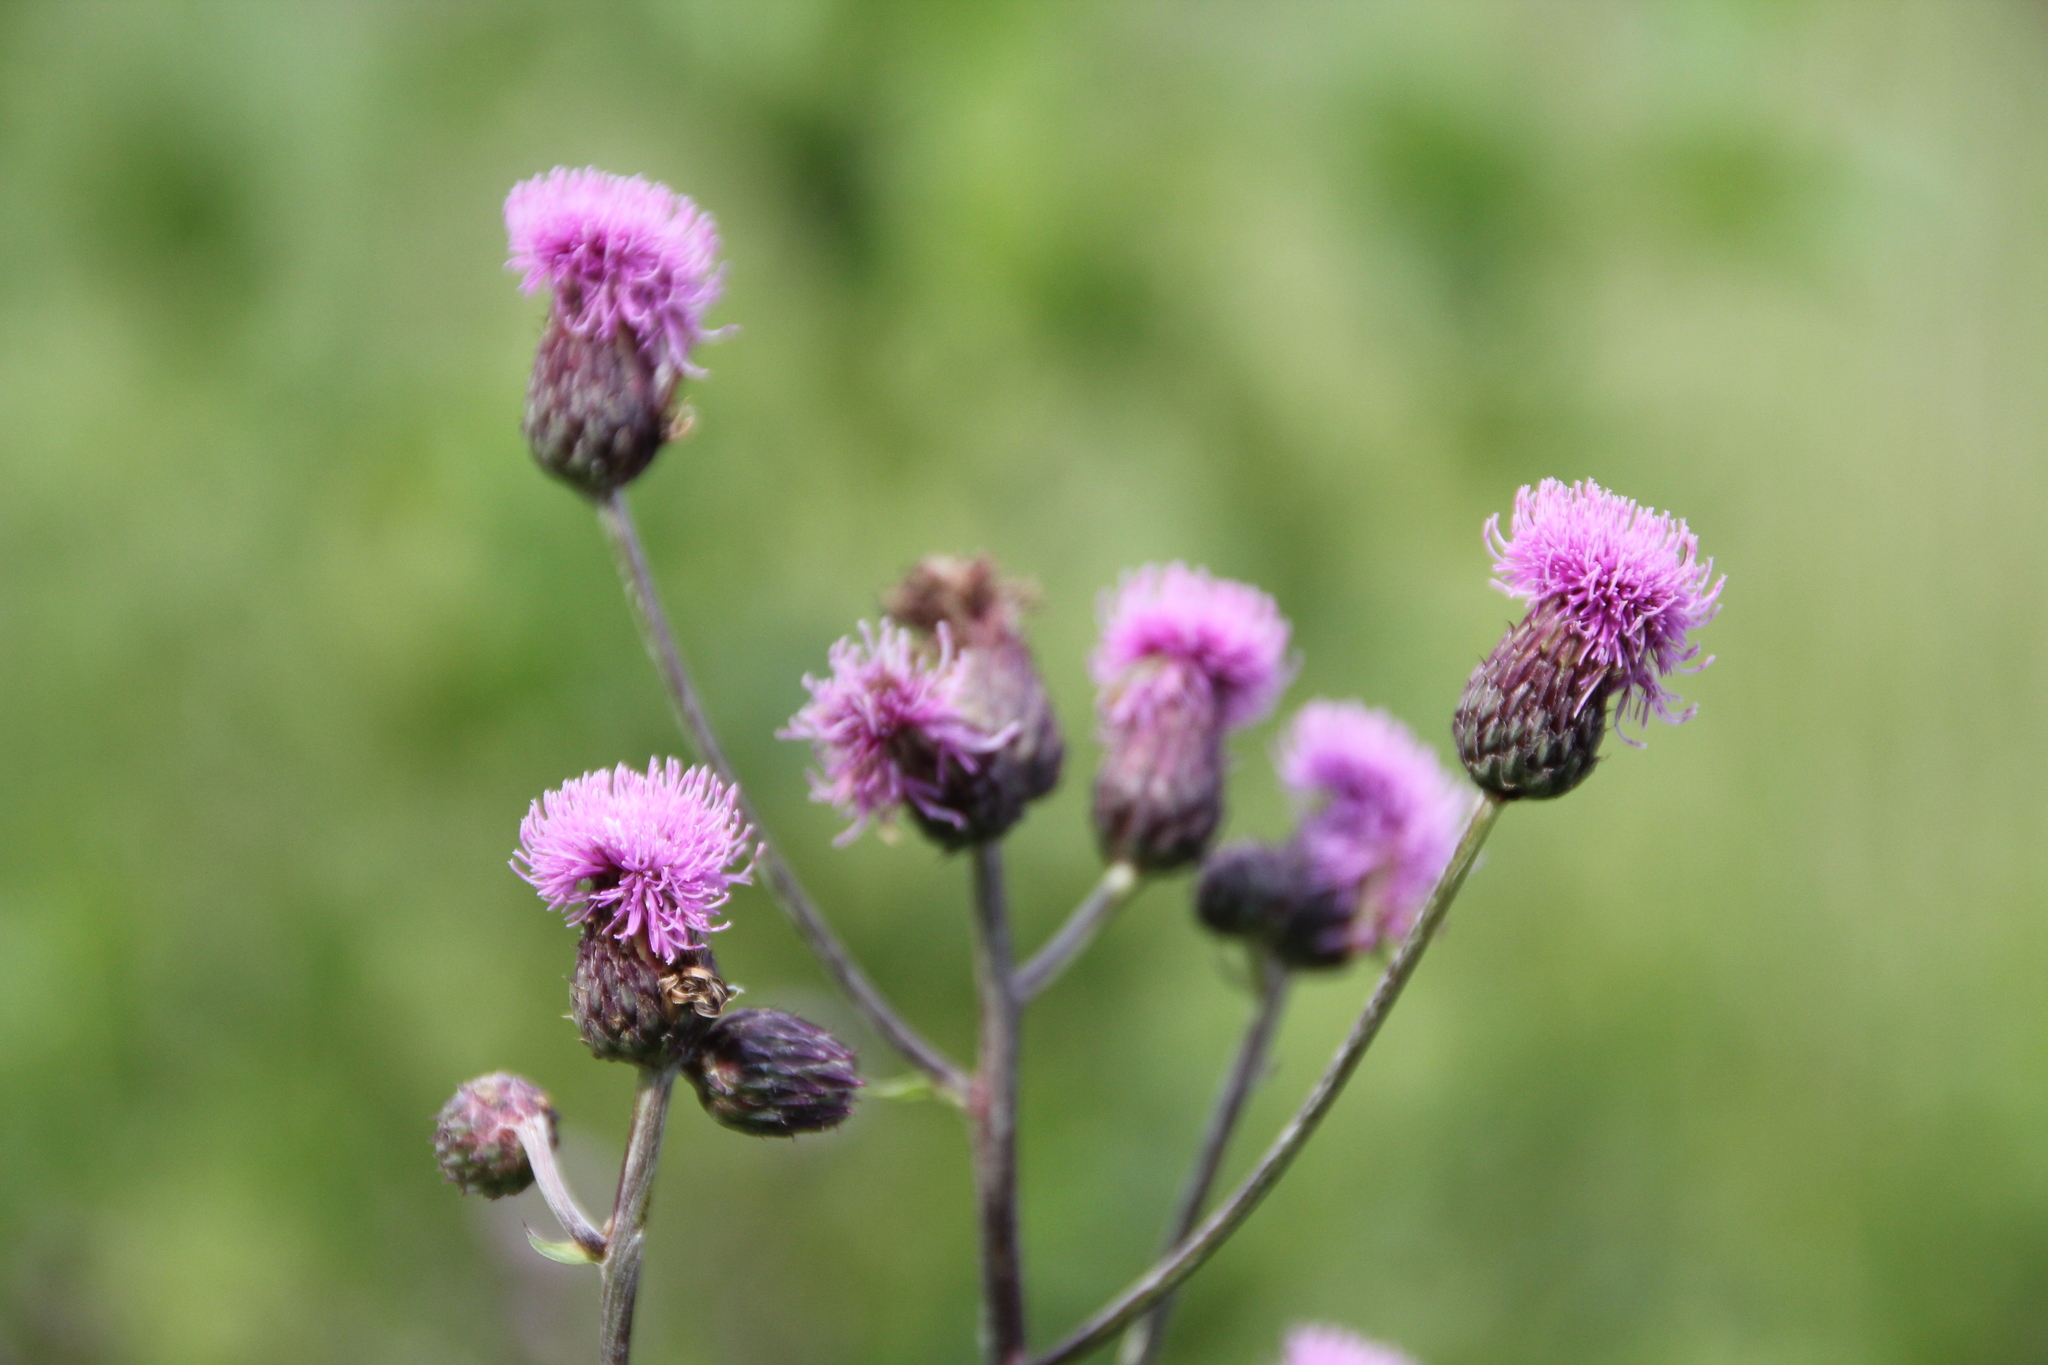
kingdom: Plantae
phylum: Tracheophyta
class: Magnoliopsida
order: Asterales
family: Asteraceae
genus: Cirsium
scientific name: Cirsium arvense
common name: Creeping thistle
